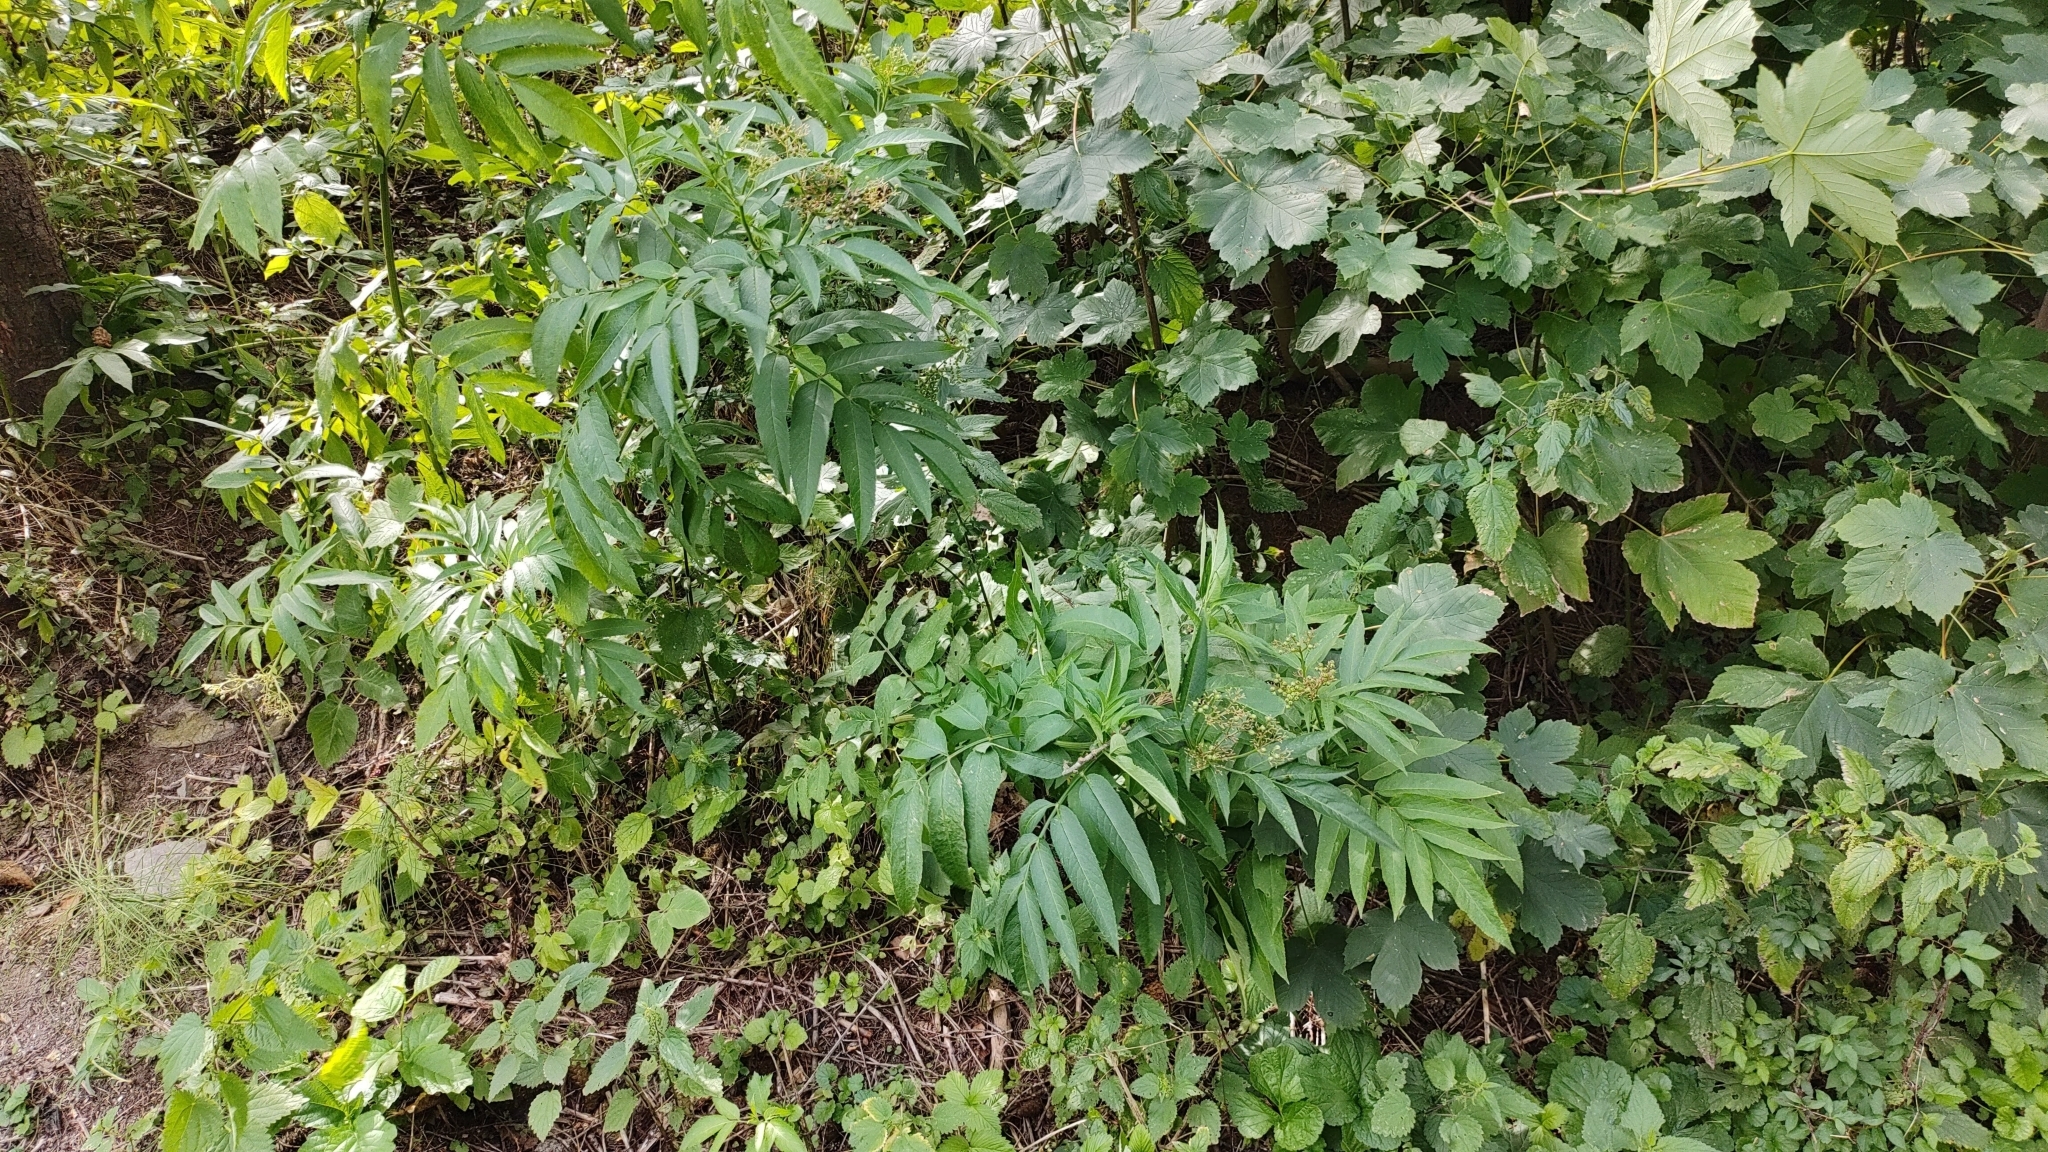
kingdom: Plantae
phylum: Tracheophyta
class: Magnoliopsida
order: Dipsacales
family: Viburnaceae
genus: Sambucus
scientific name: Sambucus ebulus
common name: Dwarf elder
